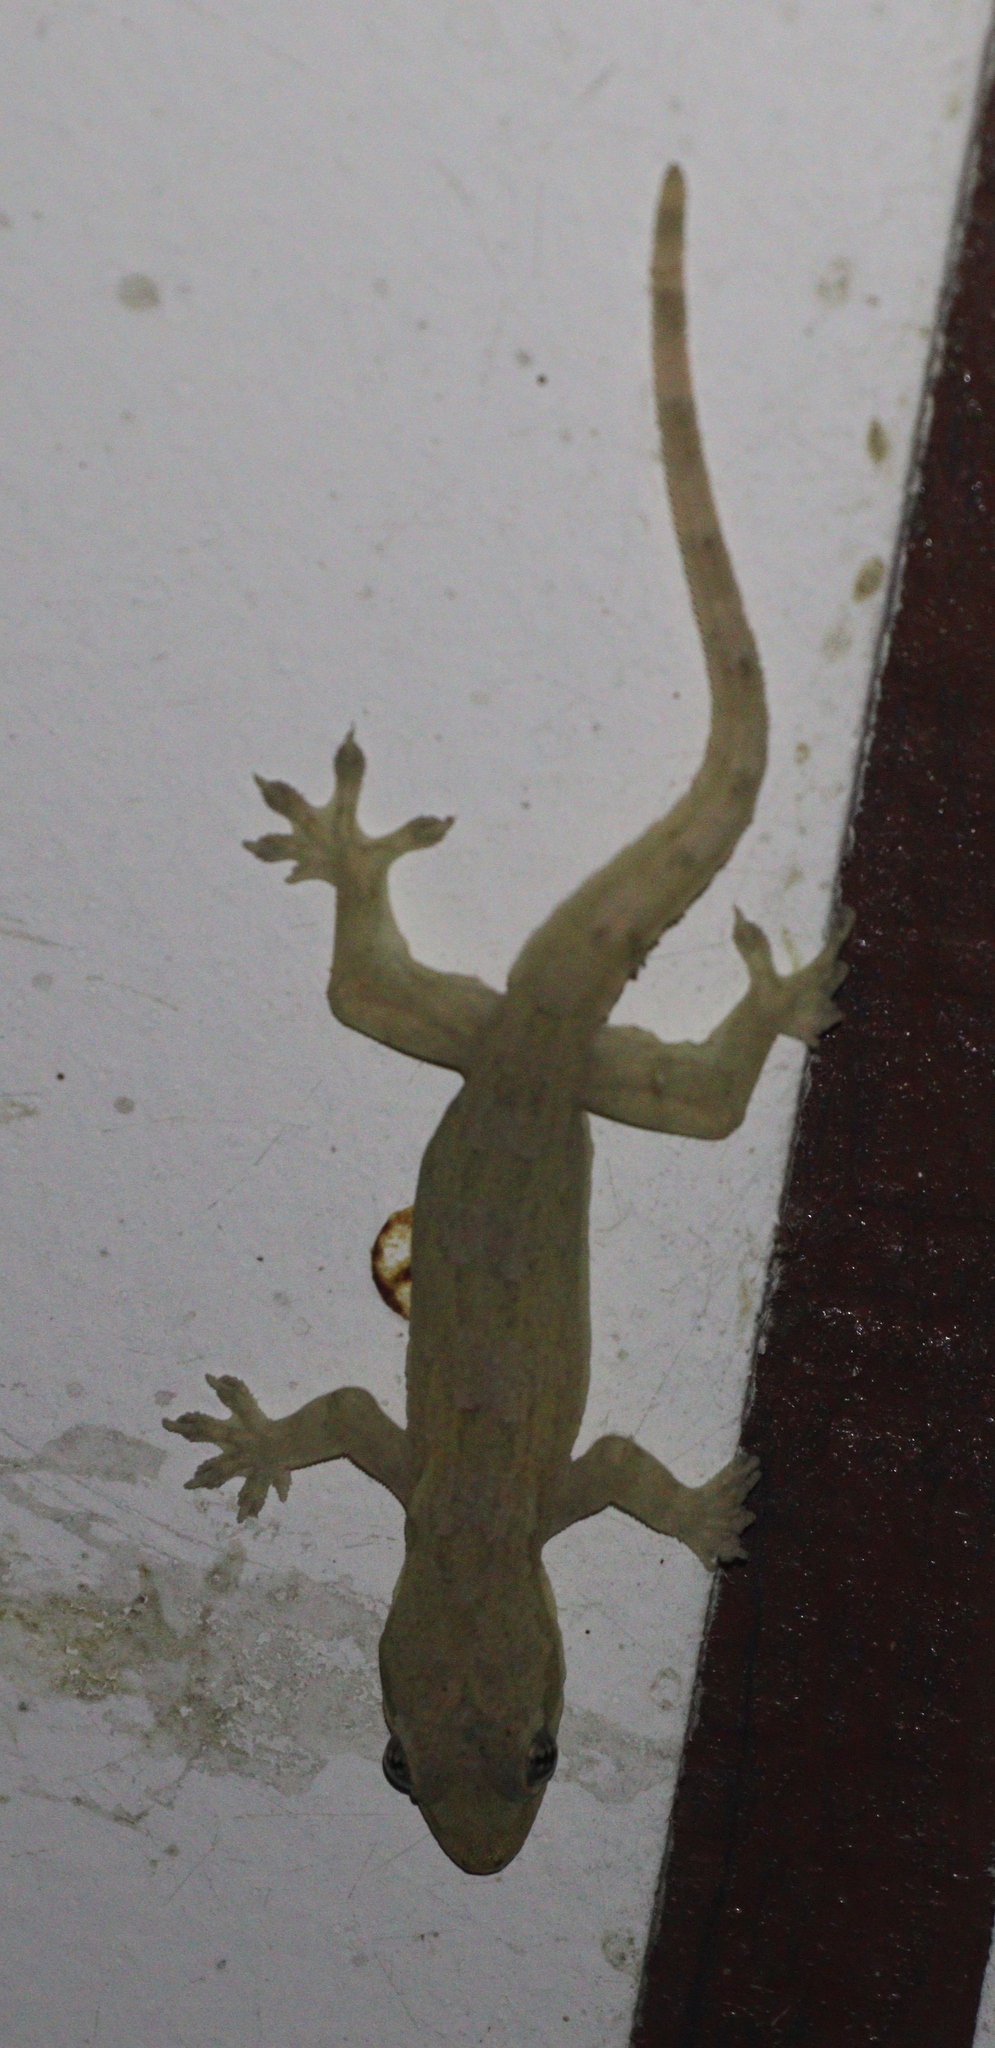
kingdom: Animalia
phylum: Chordata
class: Squamata
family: Gekkonidae
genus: Hemidactylus
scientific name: Hemidactylus platyurus
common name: Flat-tailed house gecko
